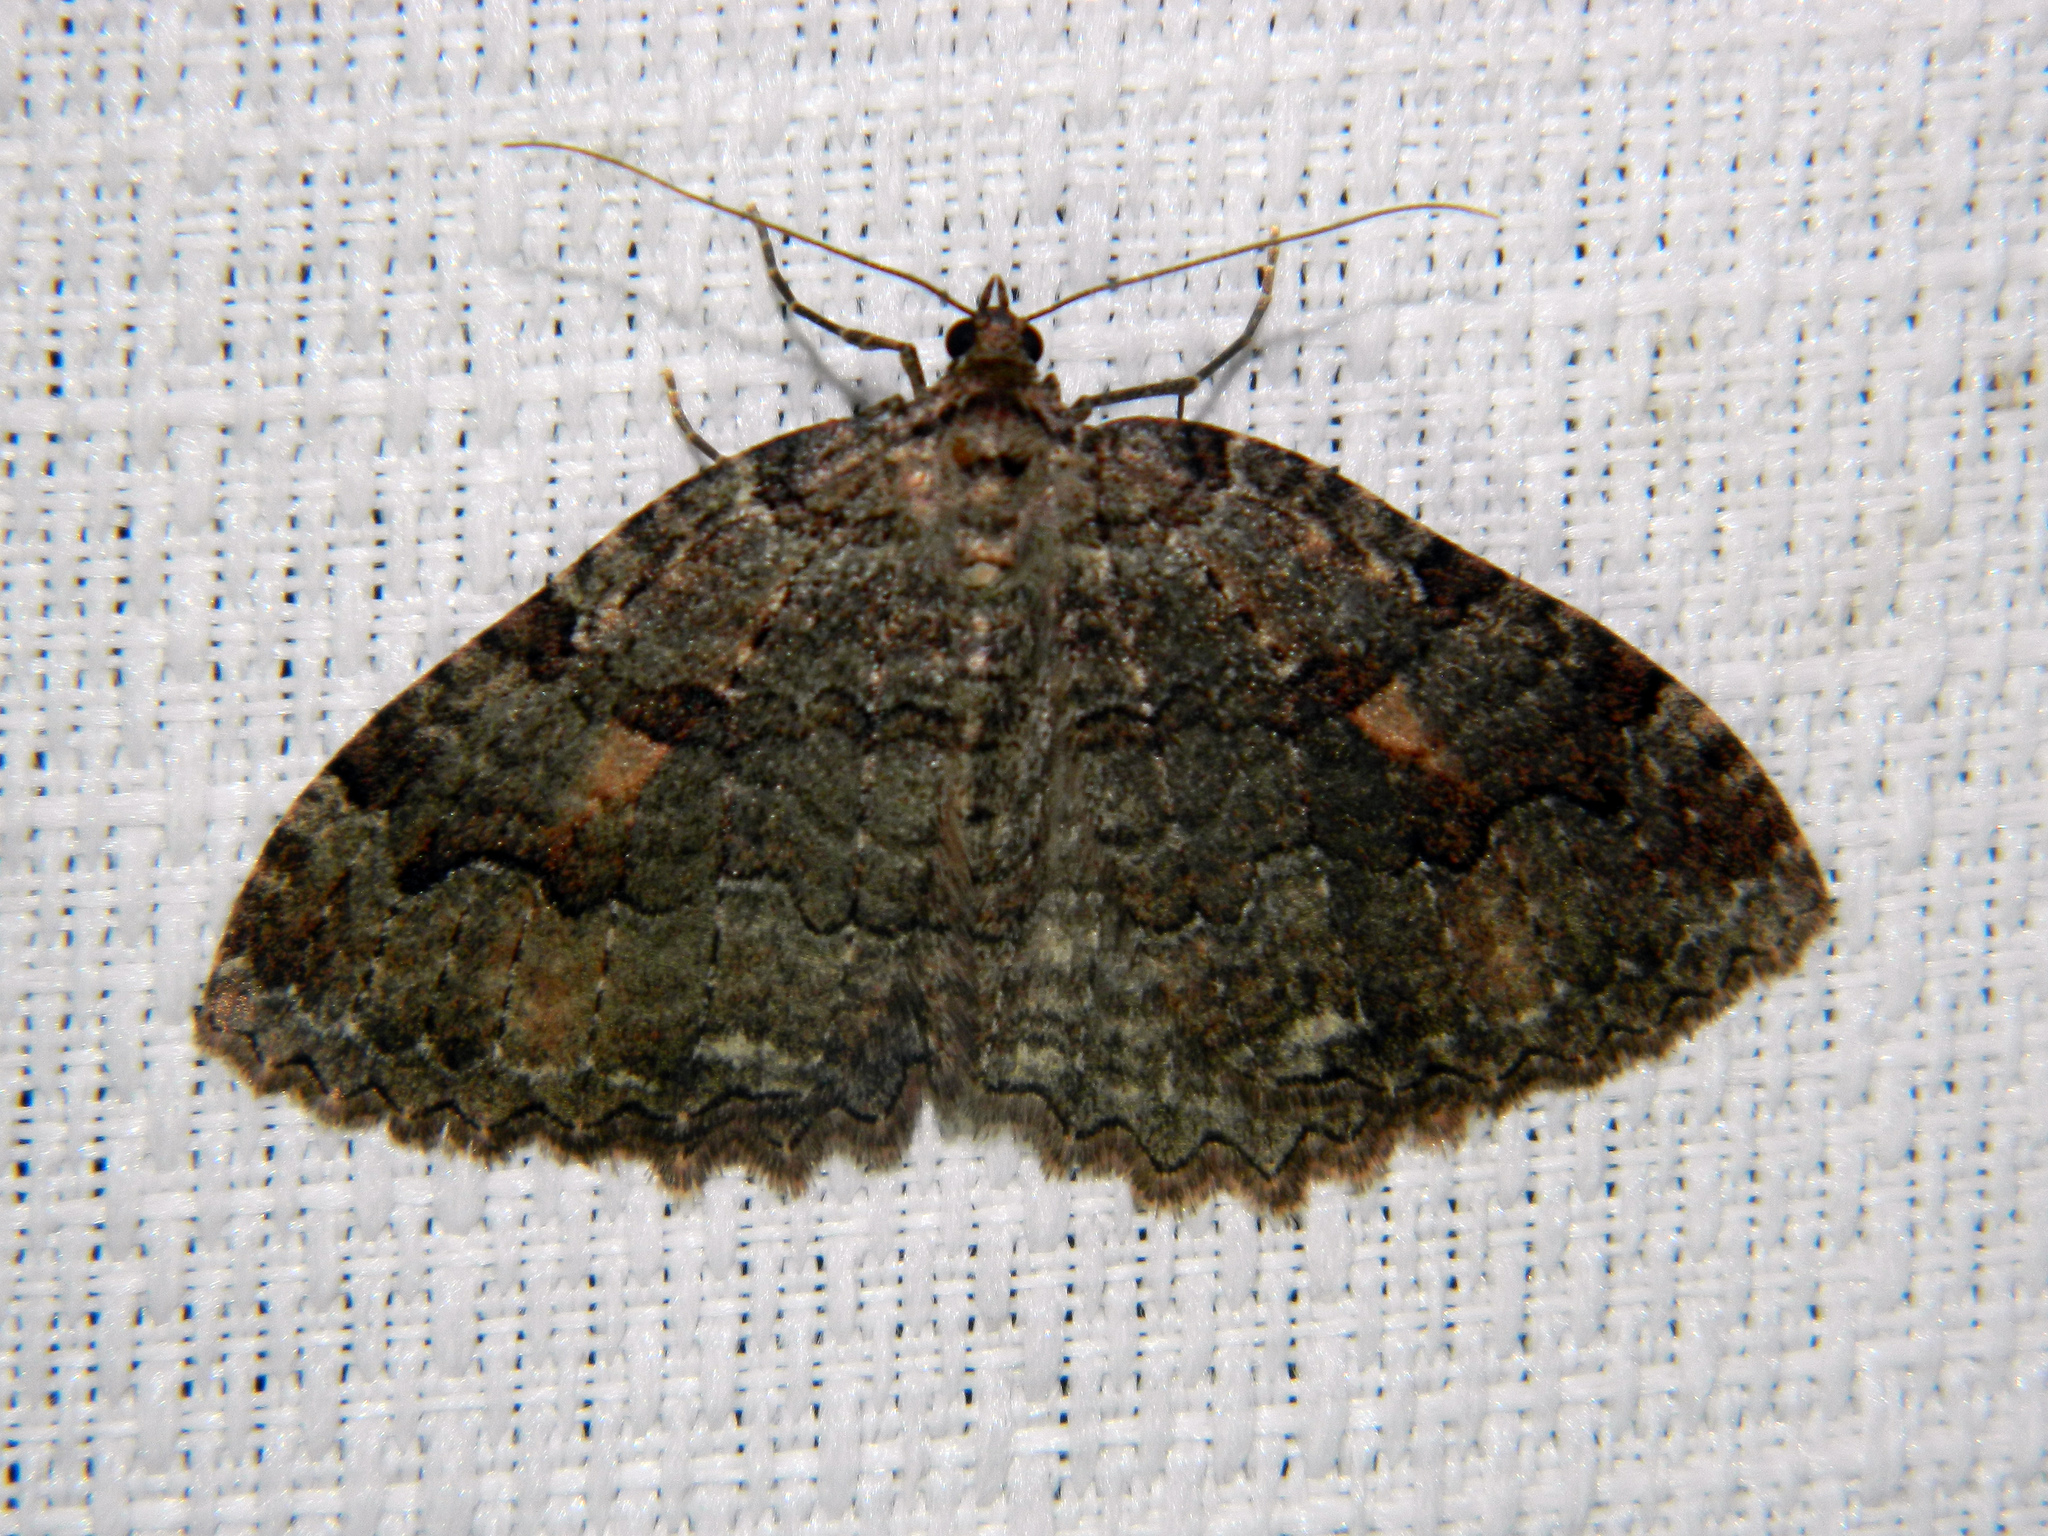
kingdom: Animalia
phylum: Arthropoda
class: Insecta
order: Lepidoptera
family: Geometridae
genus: Triphosa
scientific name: Triphosa haesitata
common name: Tissue moth
